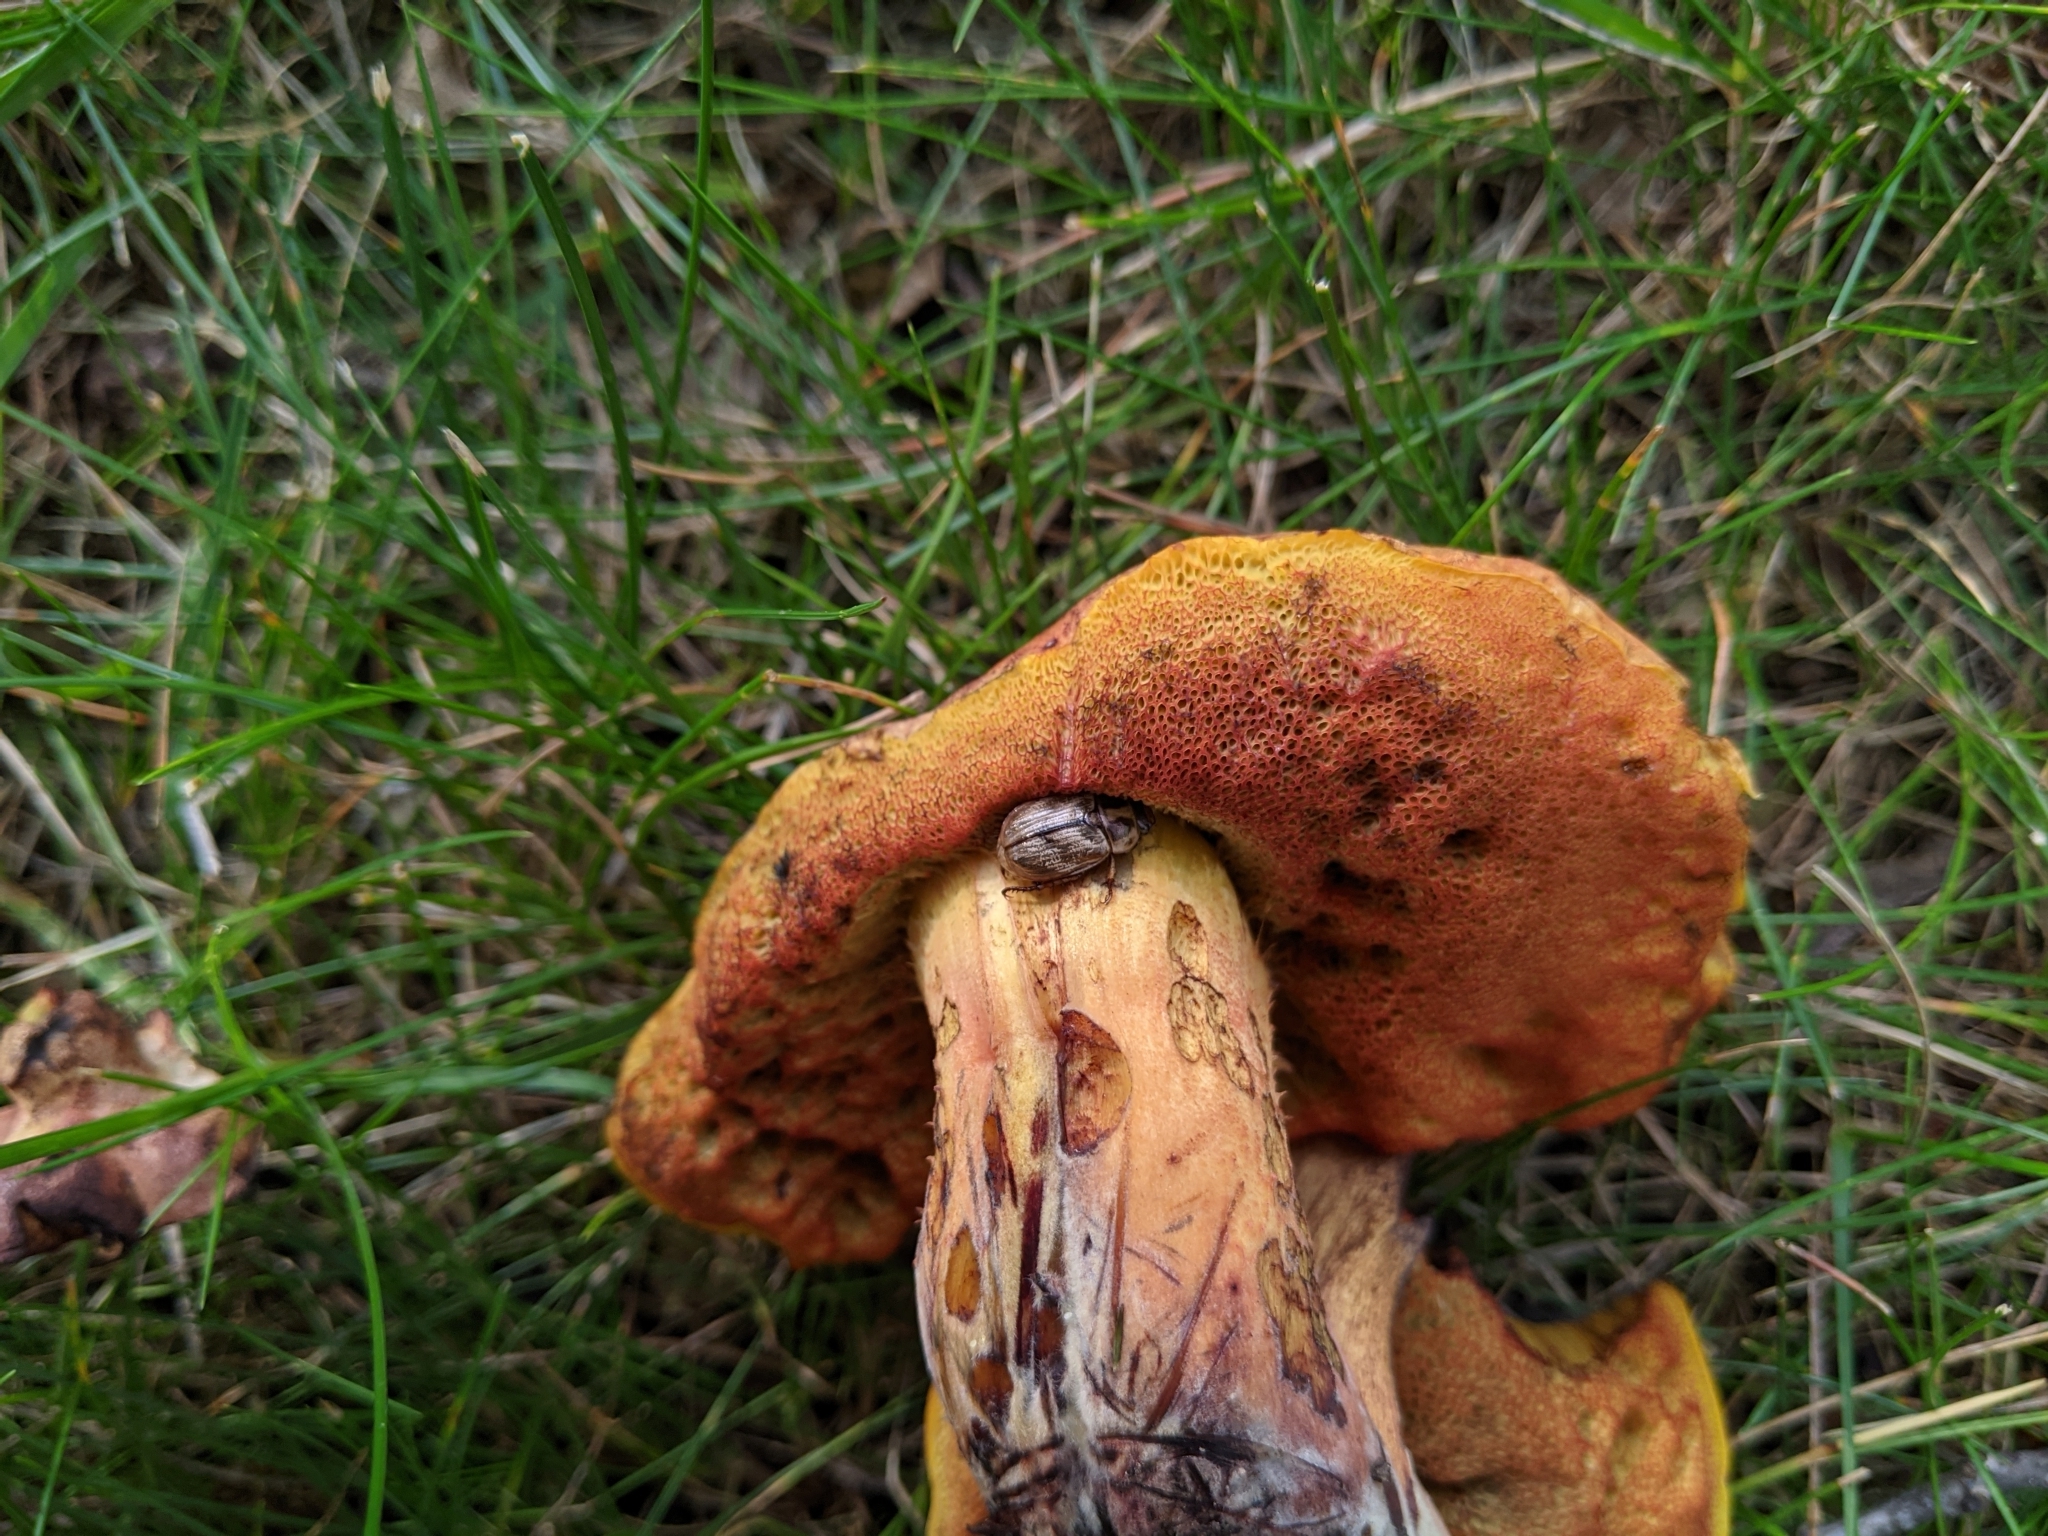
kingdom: Animalia
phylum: Arthropoda
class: Insecta
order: Coleoptera
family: Scarabaeidae
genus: Exomala
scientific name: Exomala orientalis
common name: Oriental beetle
